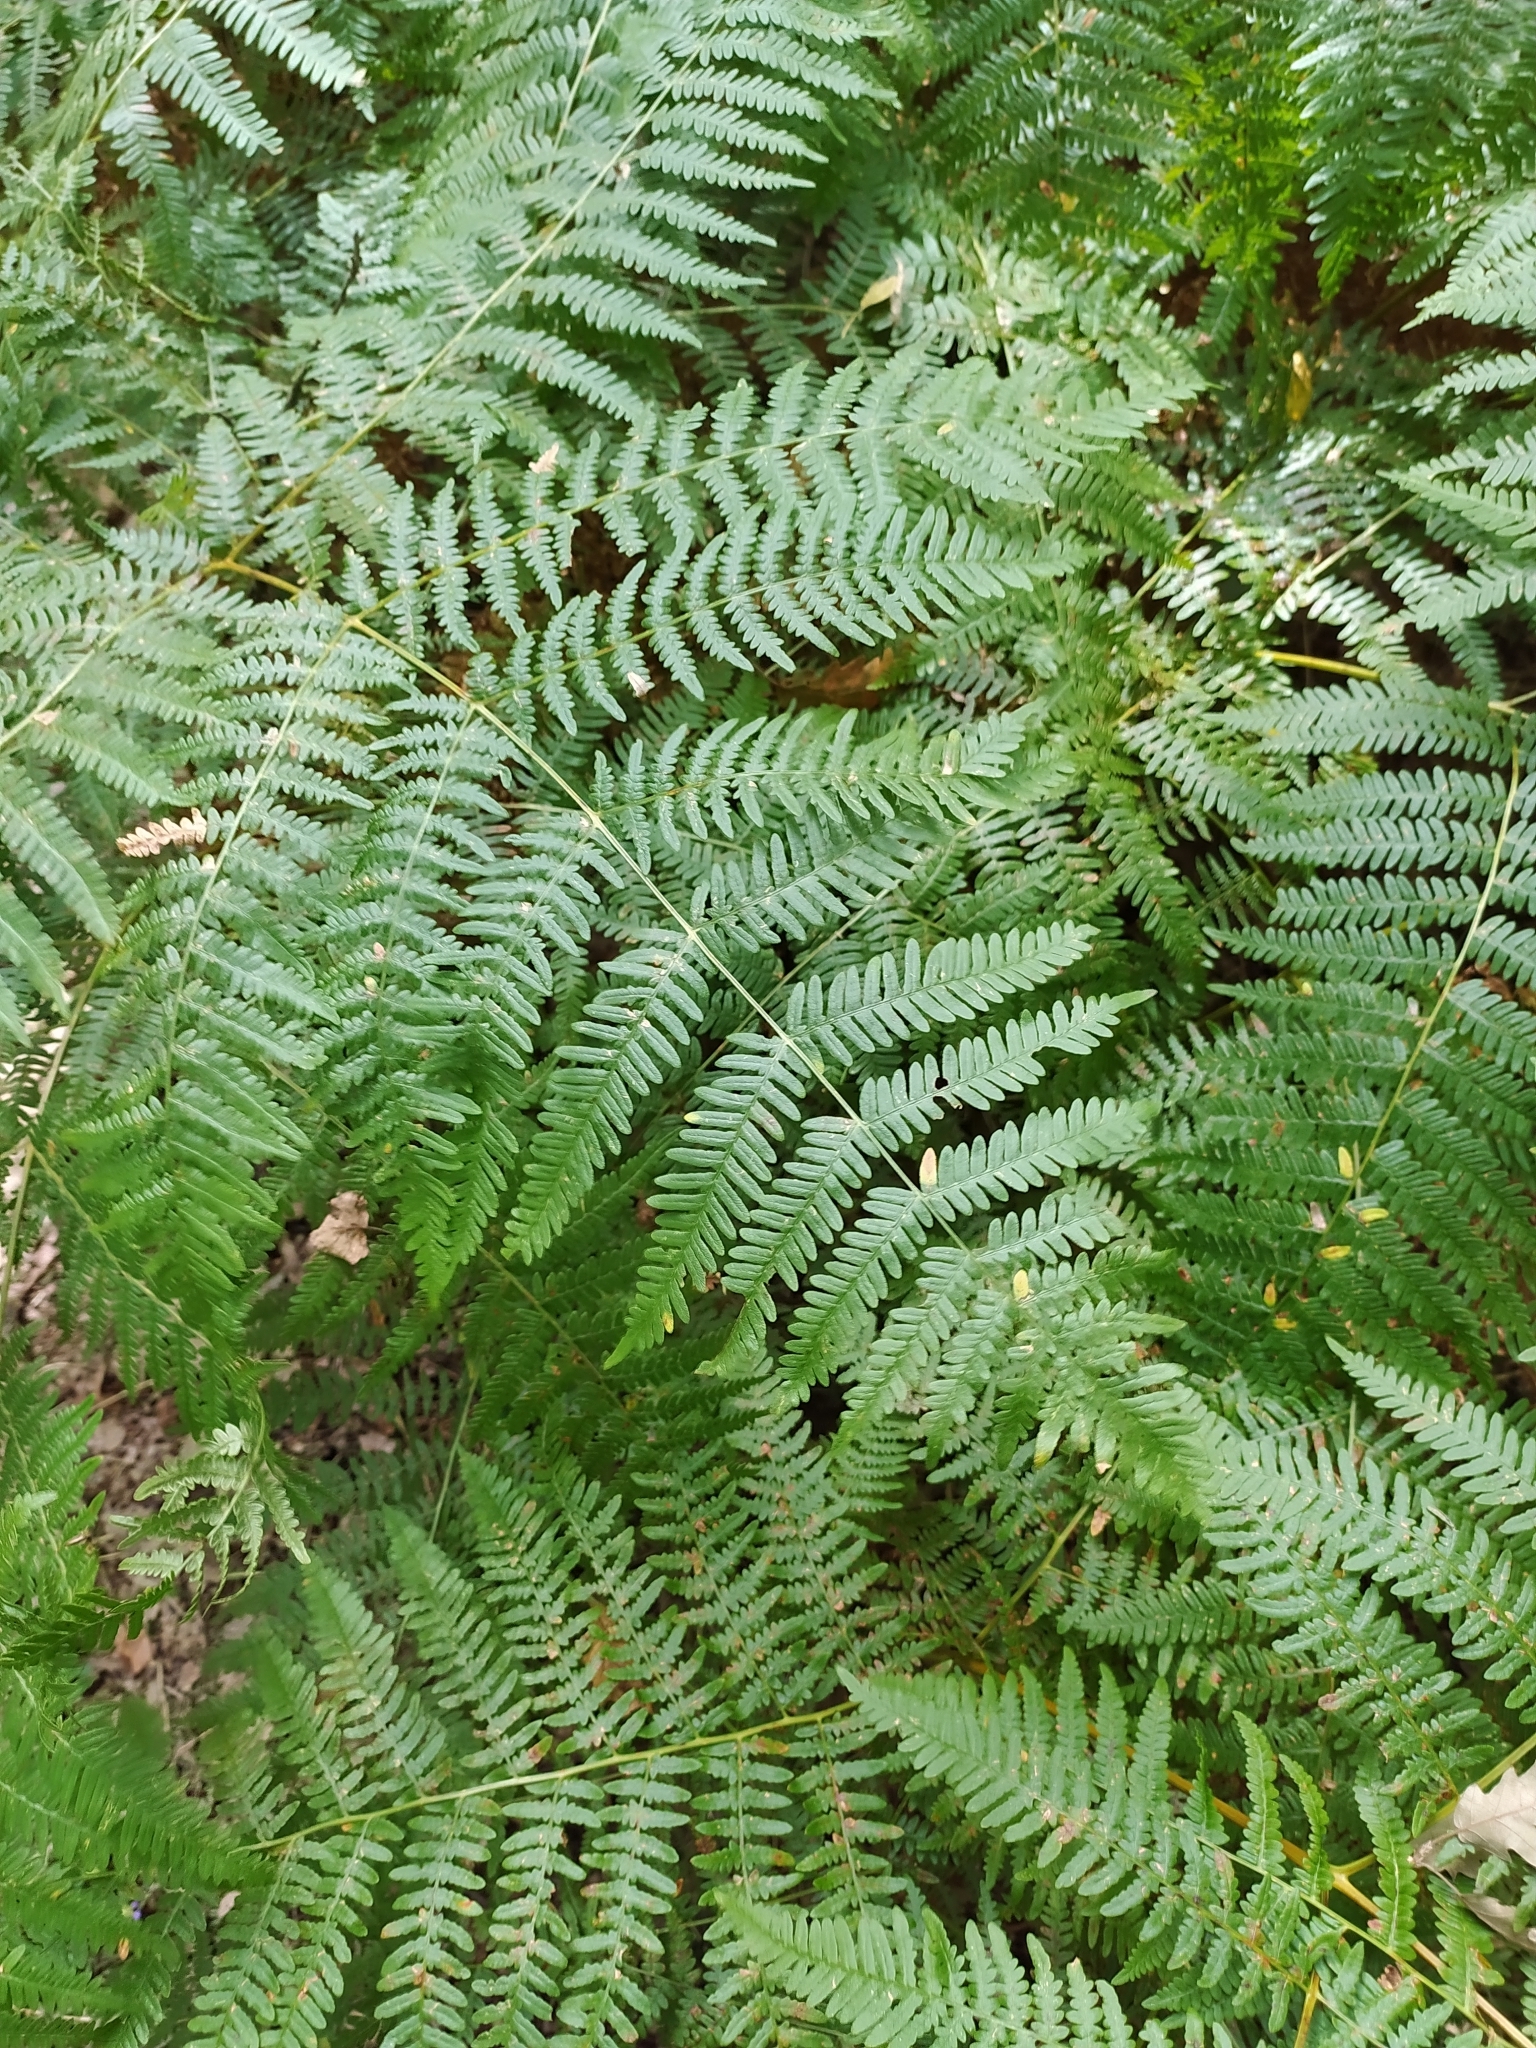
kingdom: Plantae
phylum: Tracheophyta
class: Polypodiopsida
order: Polypodiales
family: Dennstaedtiaceae
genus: Pteridium
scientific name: Pteridium aquilinum
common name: Bracken
